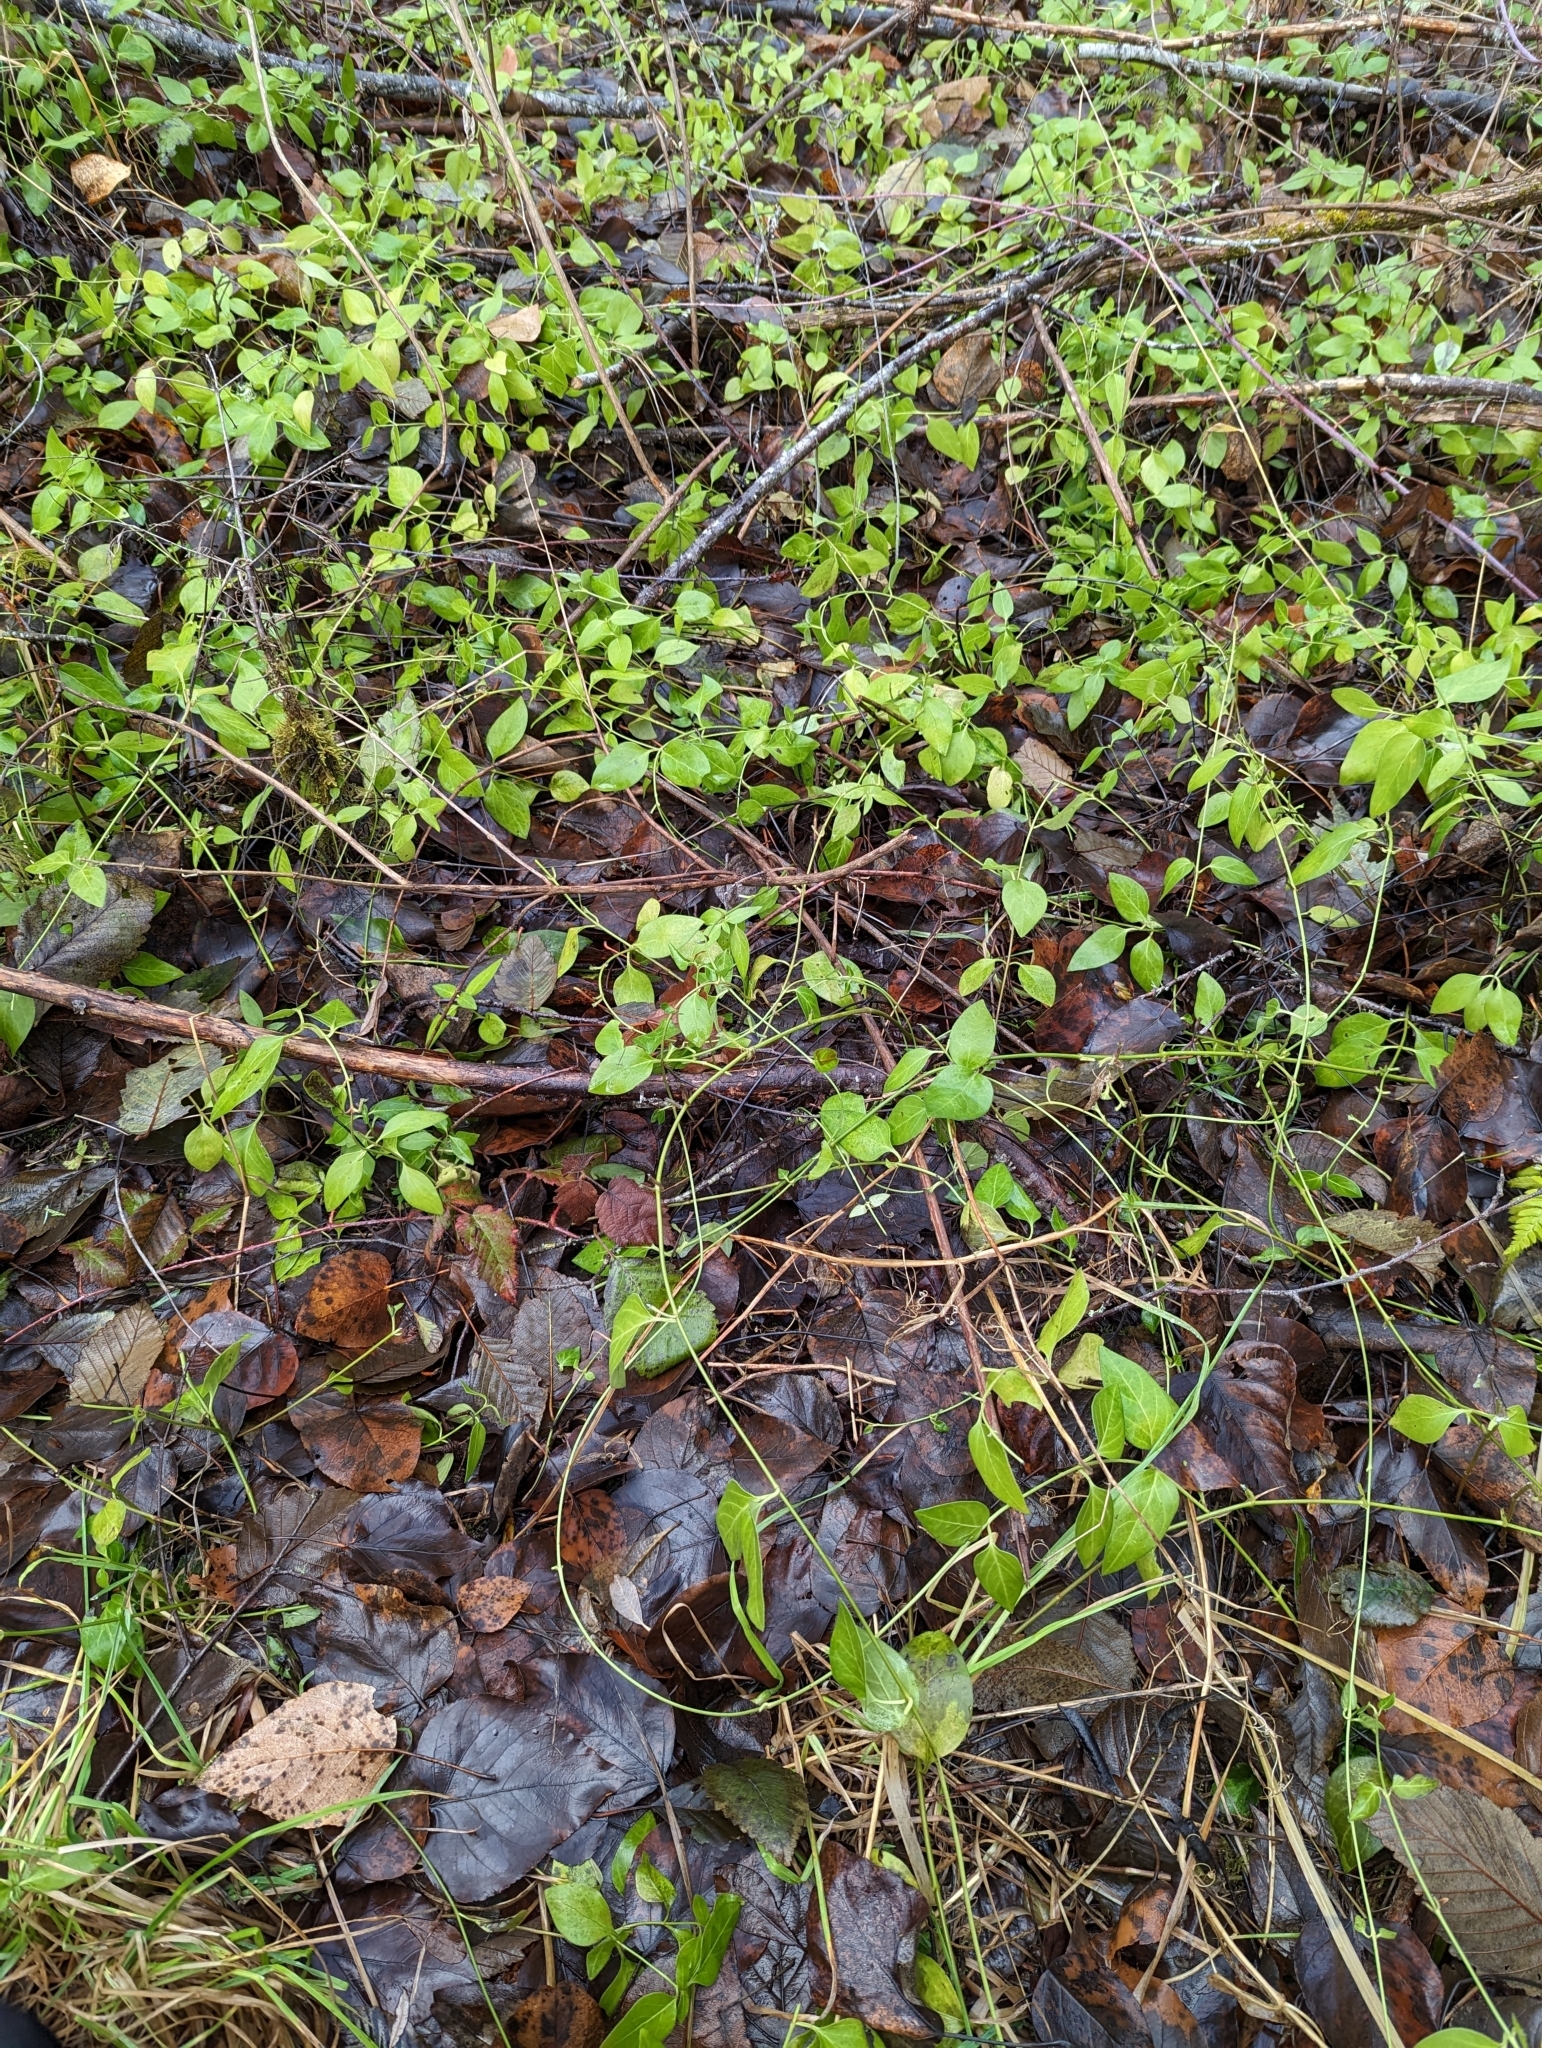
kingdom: Plantae
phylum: Tracheophyta
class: Magnoliopsida
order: Gentianales
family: Apocynaceae
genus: Vinca
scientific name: Vinca major
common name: Greater periwinkle
